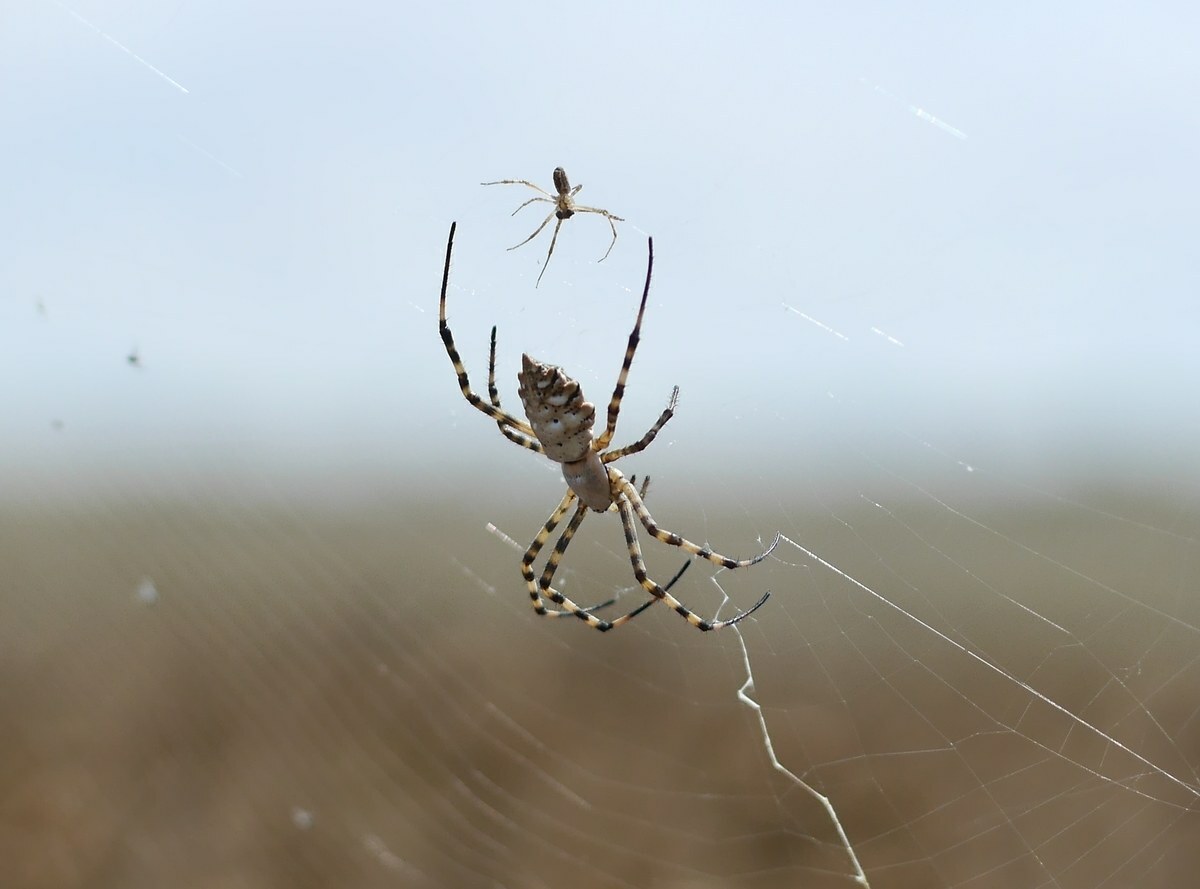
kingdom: Animalia
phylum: Arthropoda
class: Arachnida
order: Araneae
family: Araneidae
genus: Argiope
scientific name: Argiope lobata
